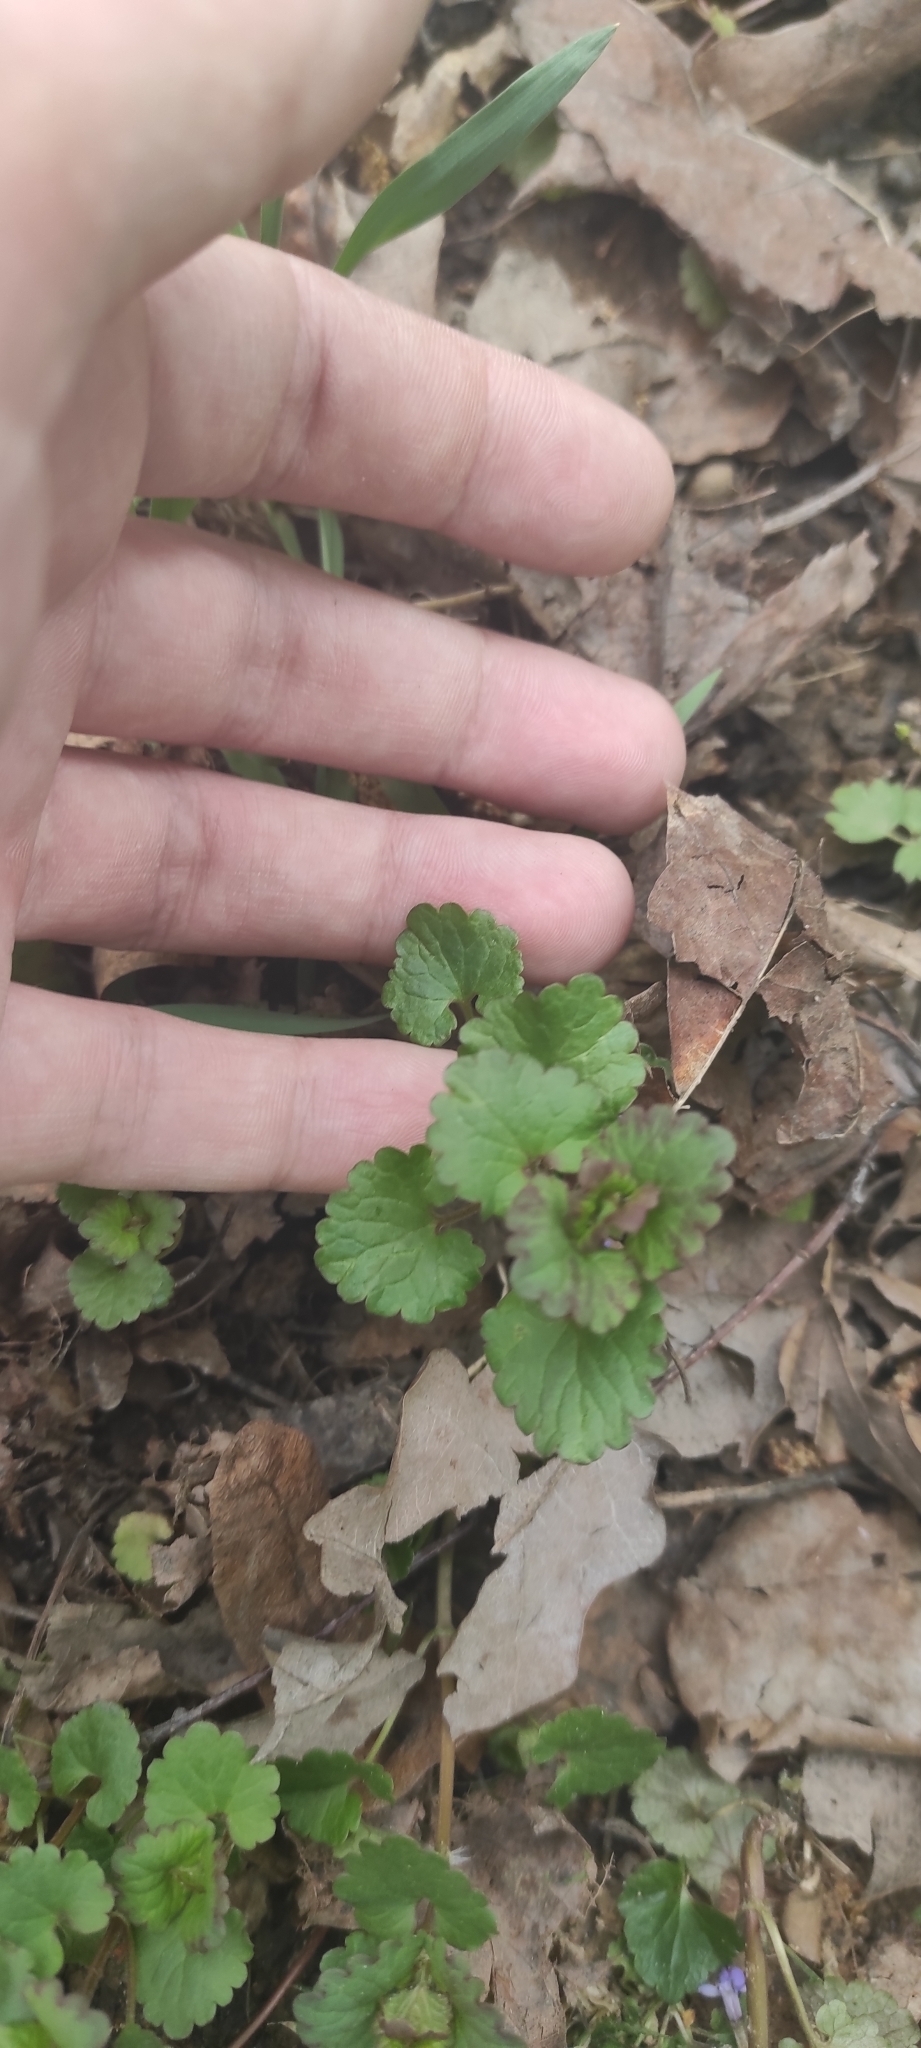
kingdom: Plantae
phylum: Tracheophyta
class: Magnoliopsida
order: Lamiales
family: Lamiaceae
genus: Glechoma
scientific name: Glechoma hederacea
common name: Ground ivy
